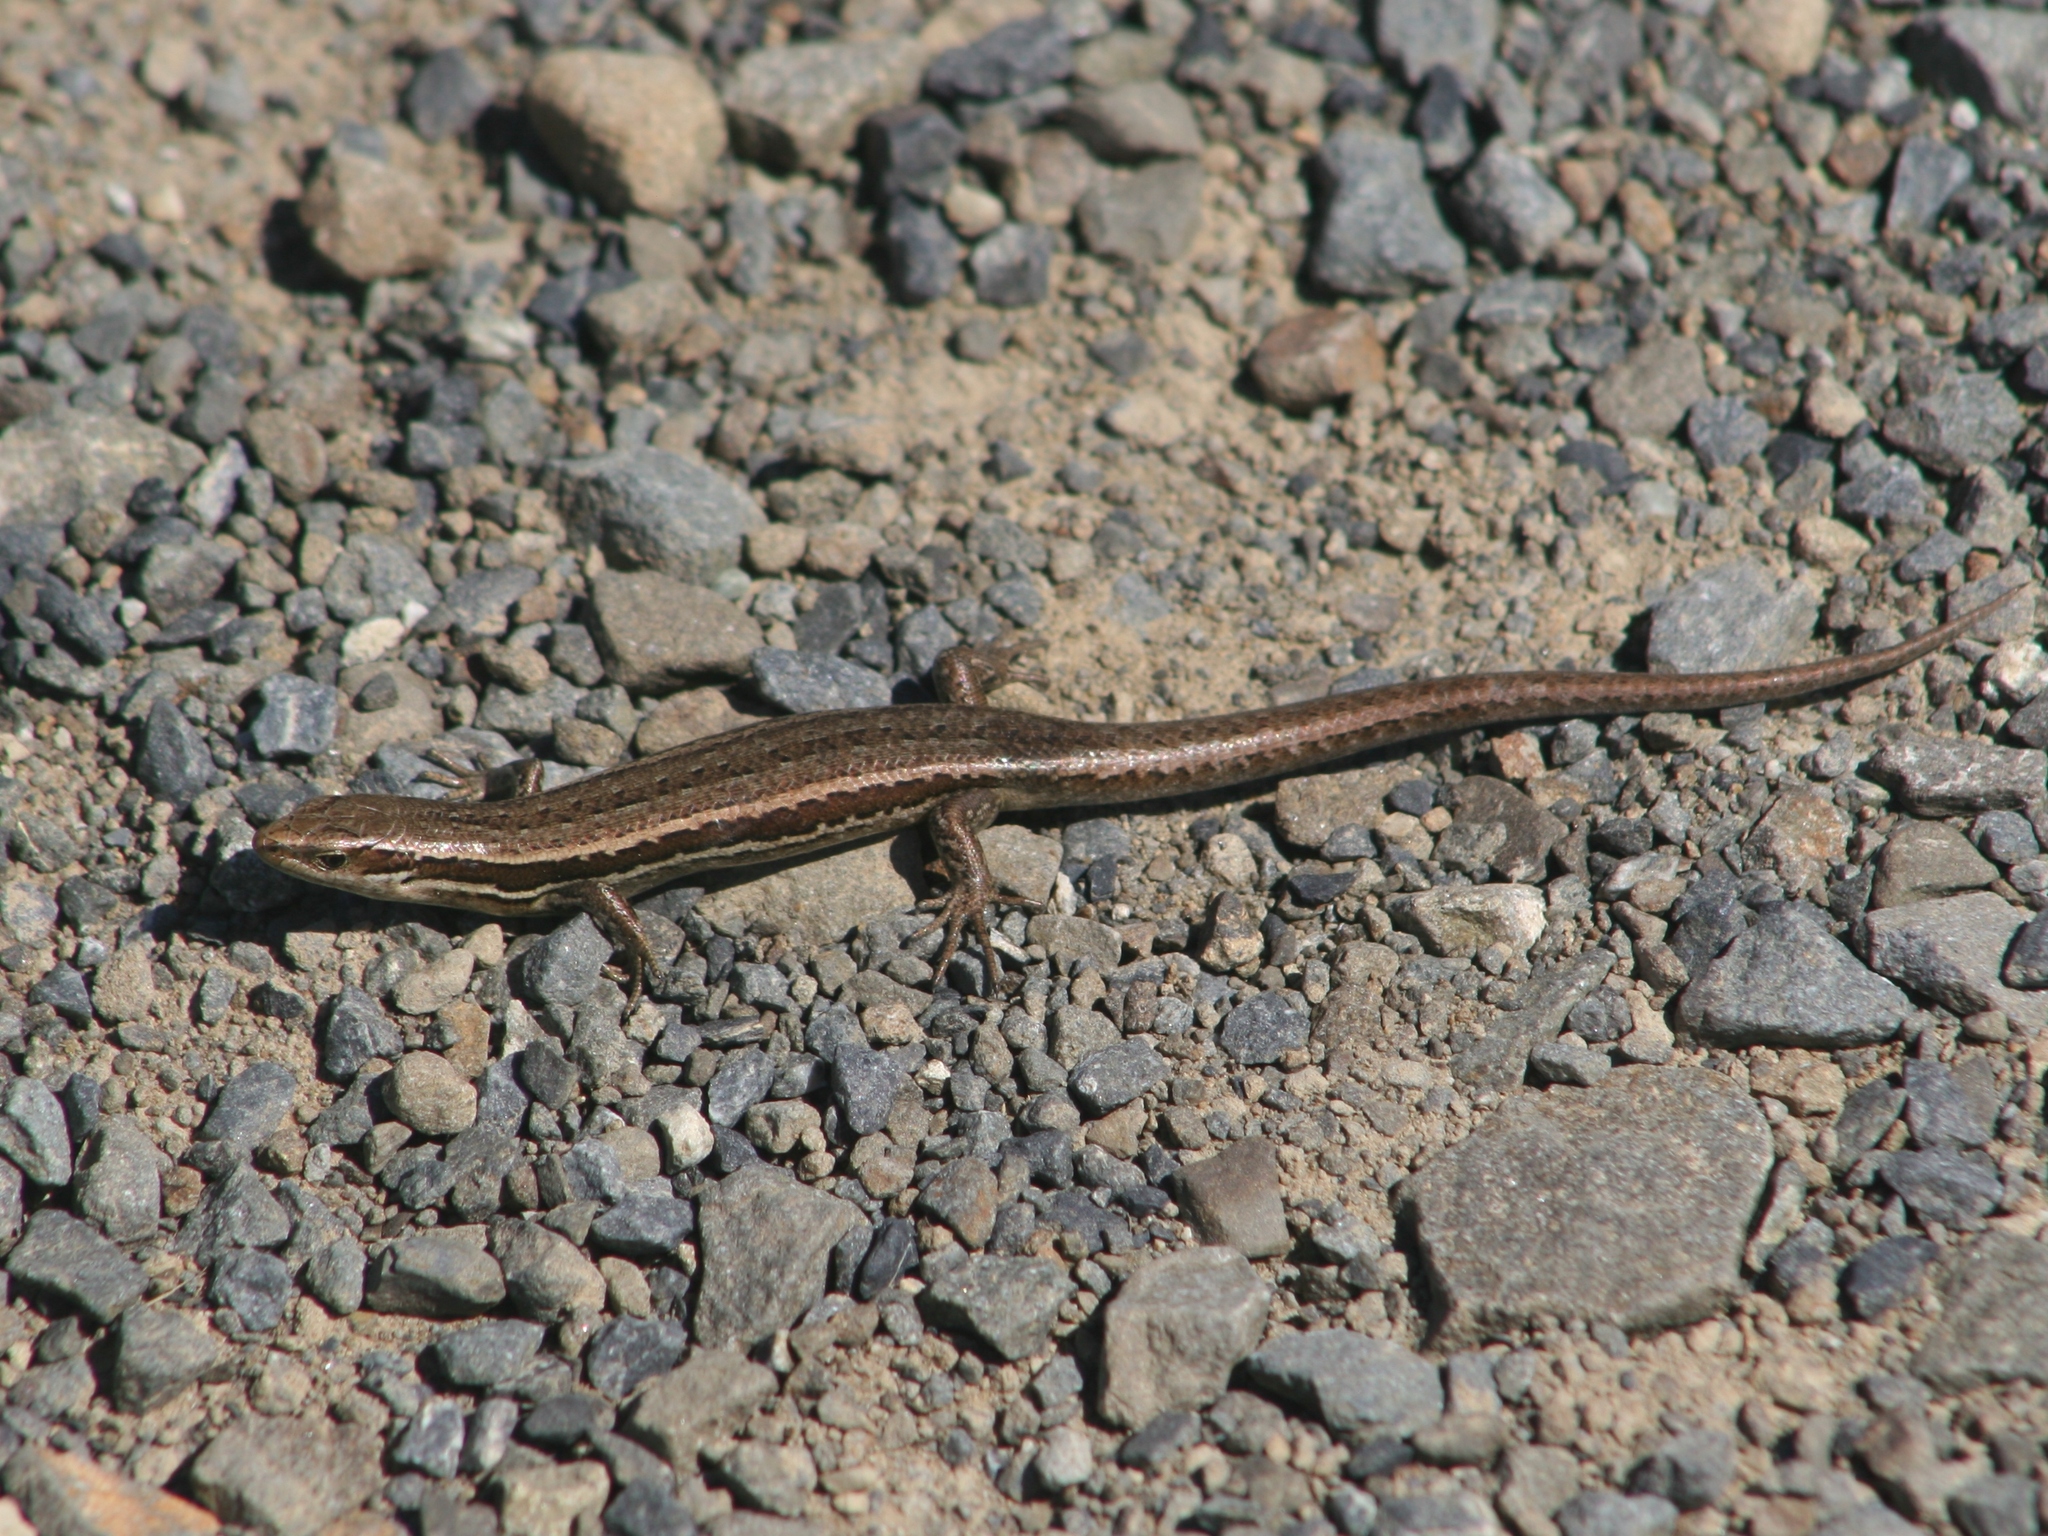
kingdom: Animalia
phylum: Chordata
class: Squamata
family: Scincidae
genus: Oligosoma
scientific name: Oligosoma polychroma
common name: Common new zealand skink
